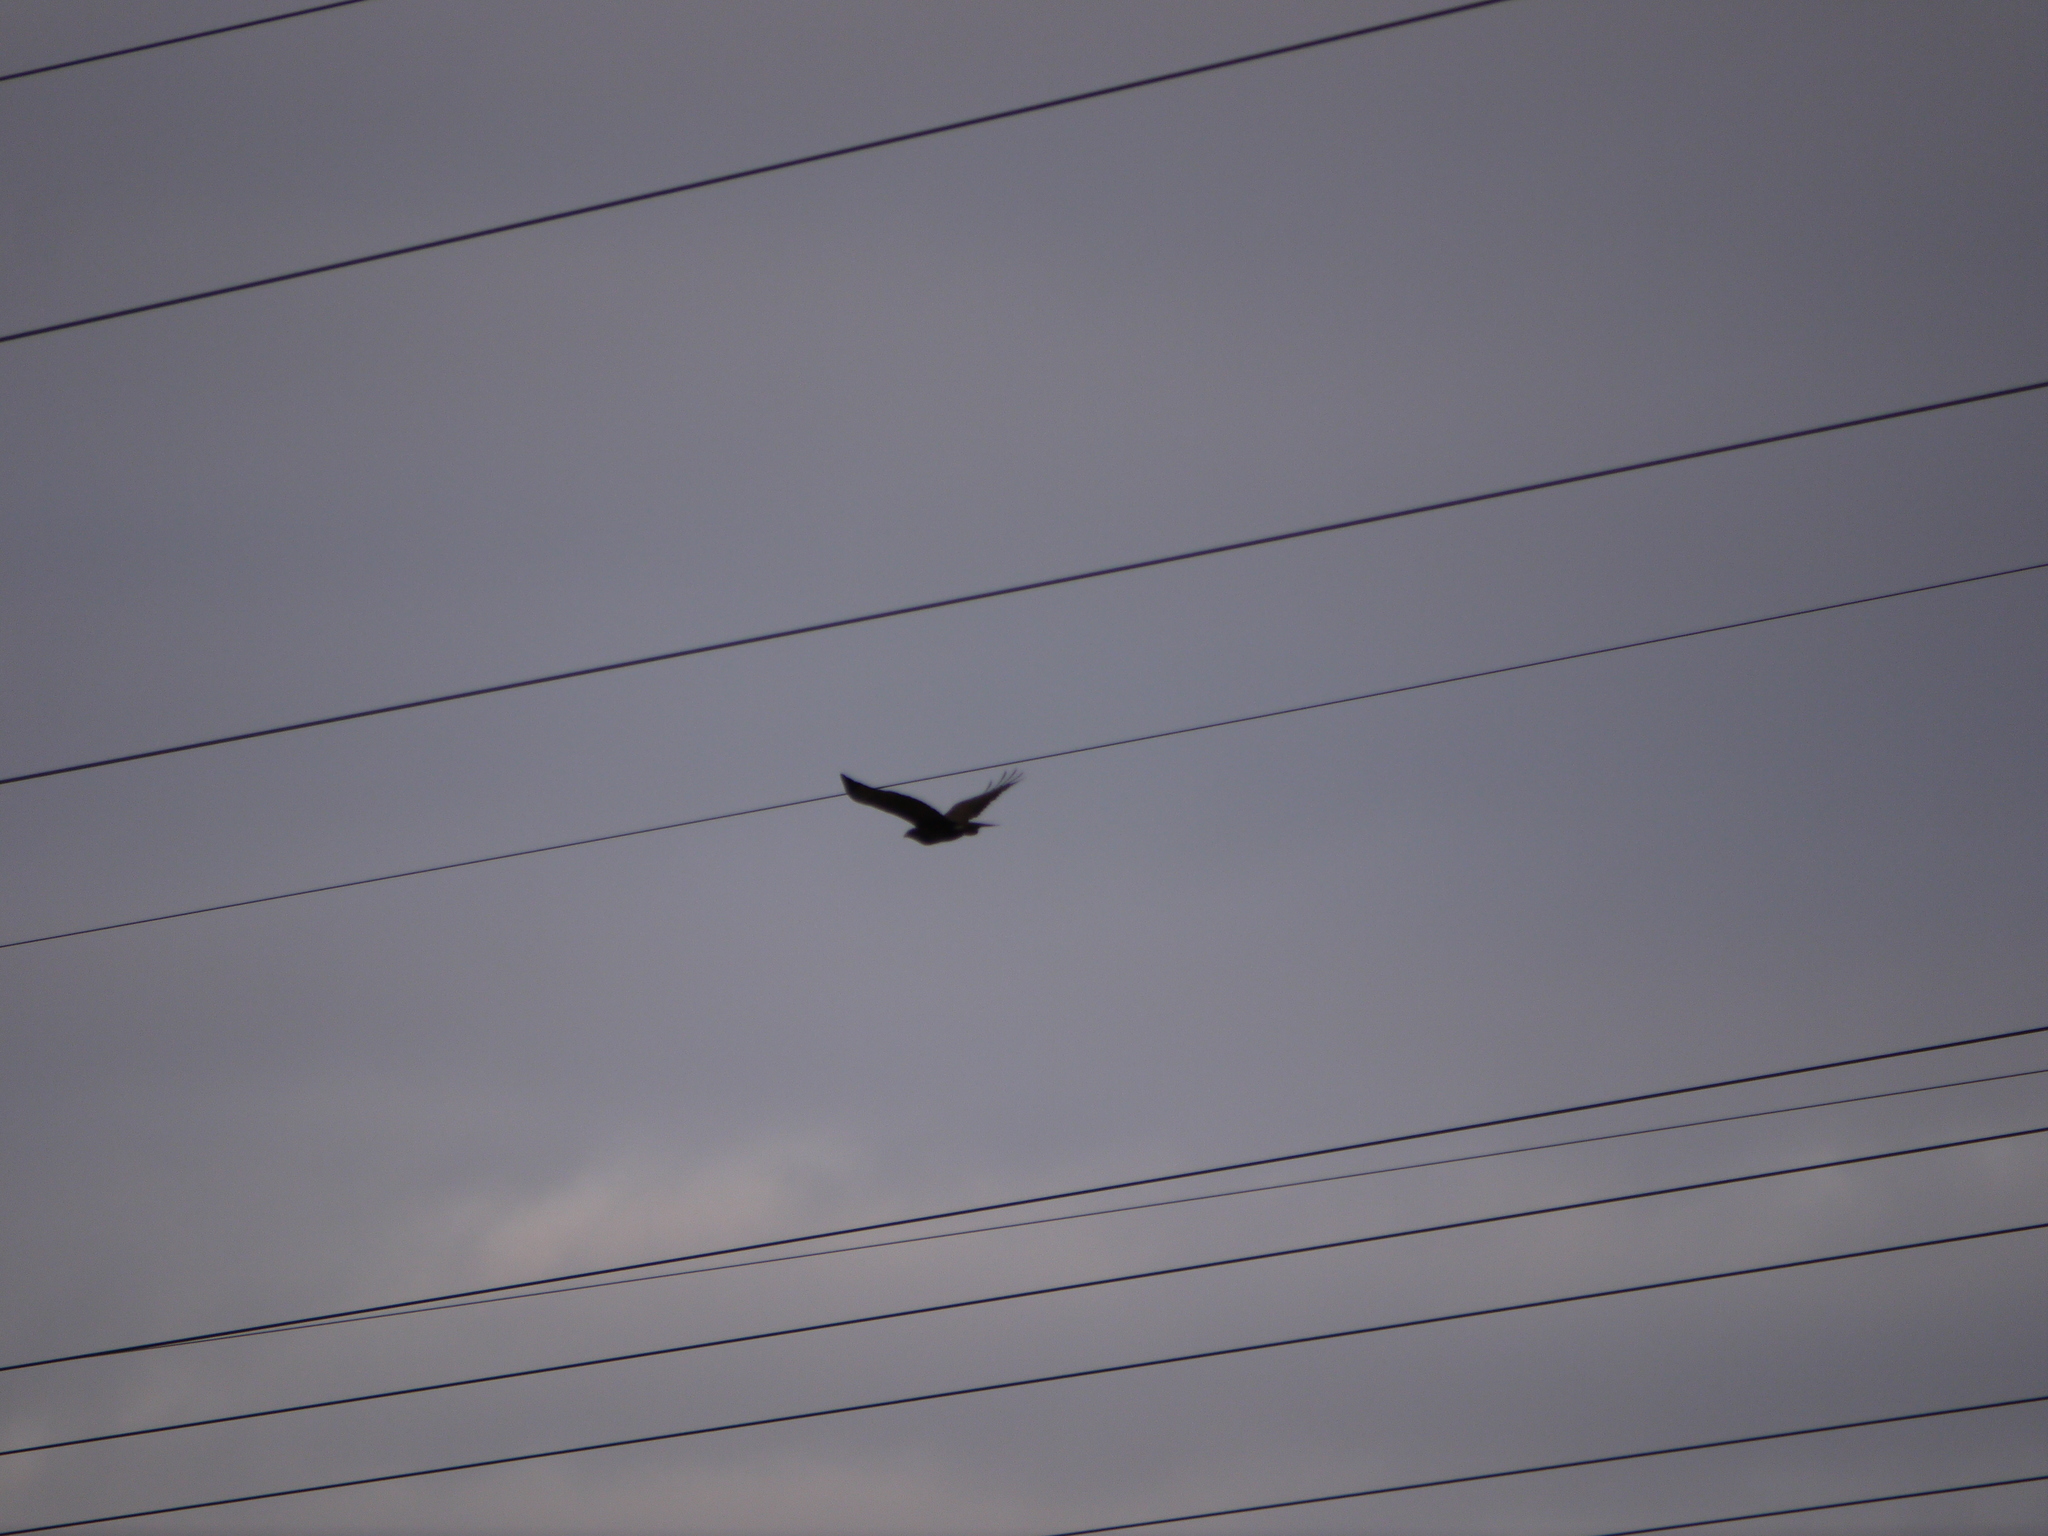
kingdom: Animalia
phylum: Chordata
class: Aves
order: Accipitriformes
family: Accipitridae
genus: Buteo
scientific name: Buteo buteo
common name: Common buzzard
